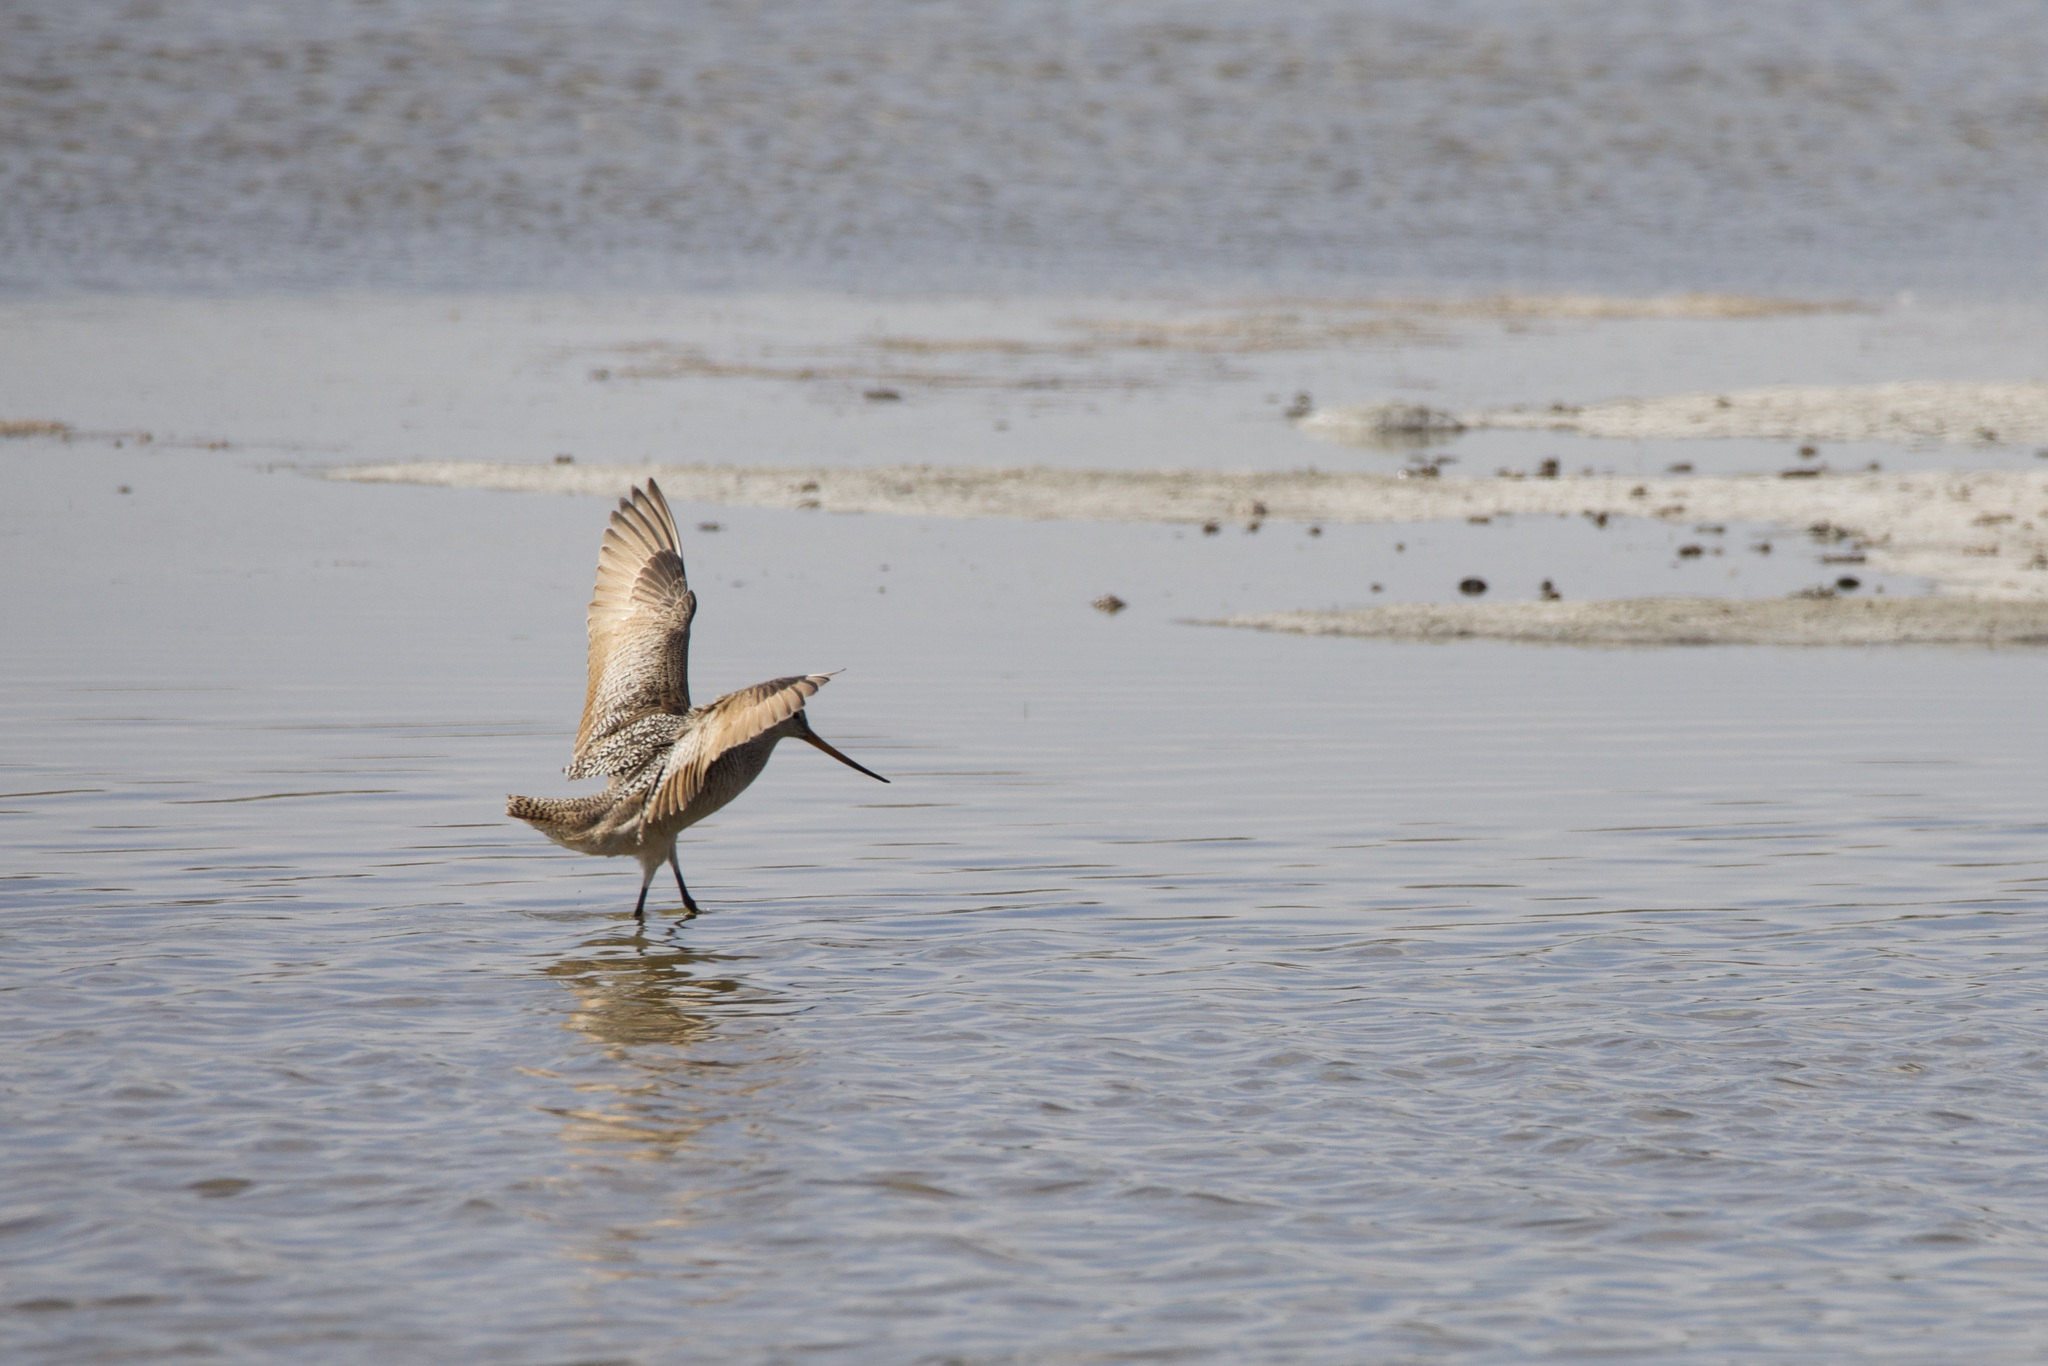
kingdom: Animalia
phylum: Chordata
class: Aves
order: Charadriiformes
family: Scolopacidae
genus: Limosa
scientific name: Limosa fedoa
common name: Marbled godwit
